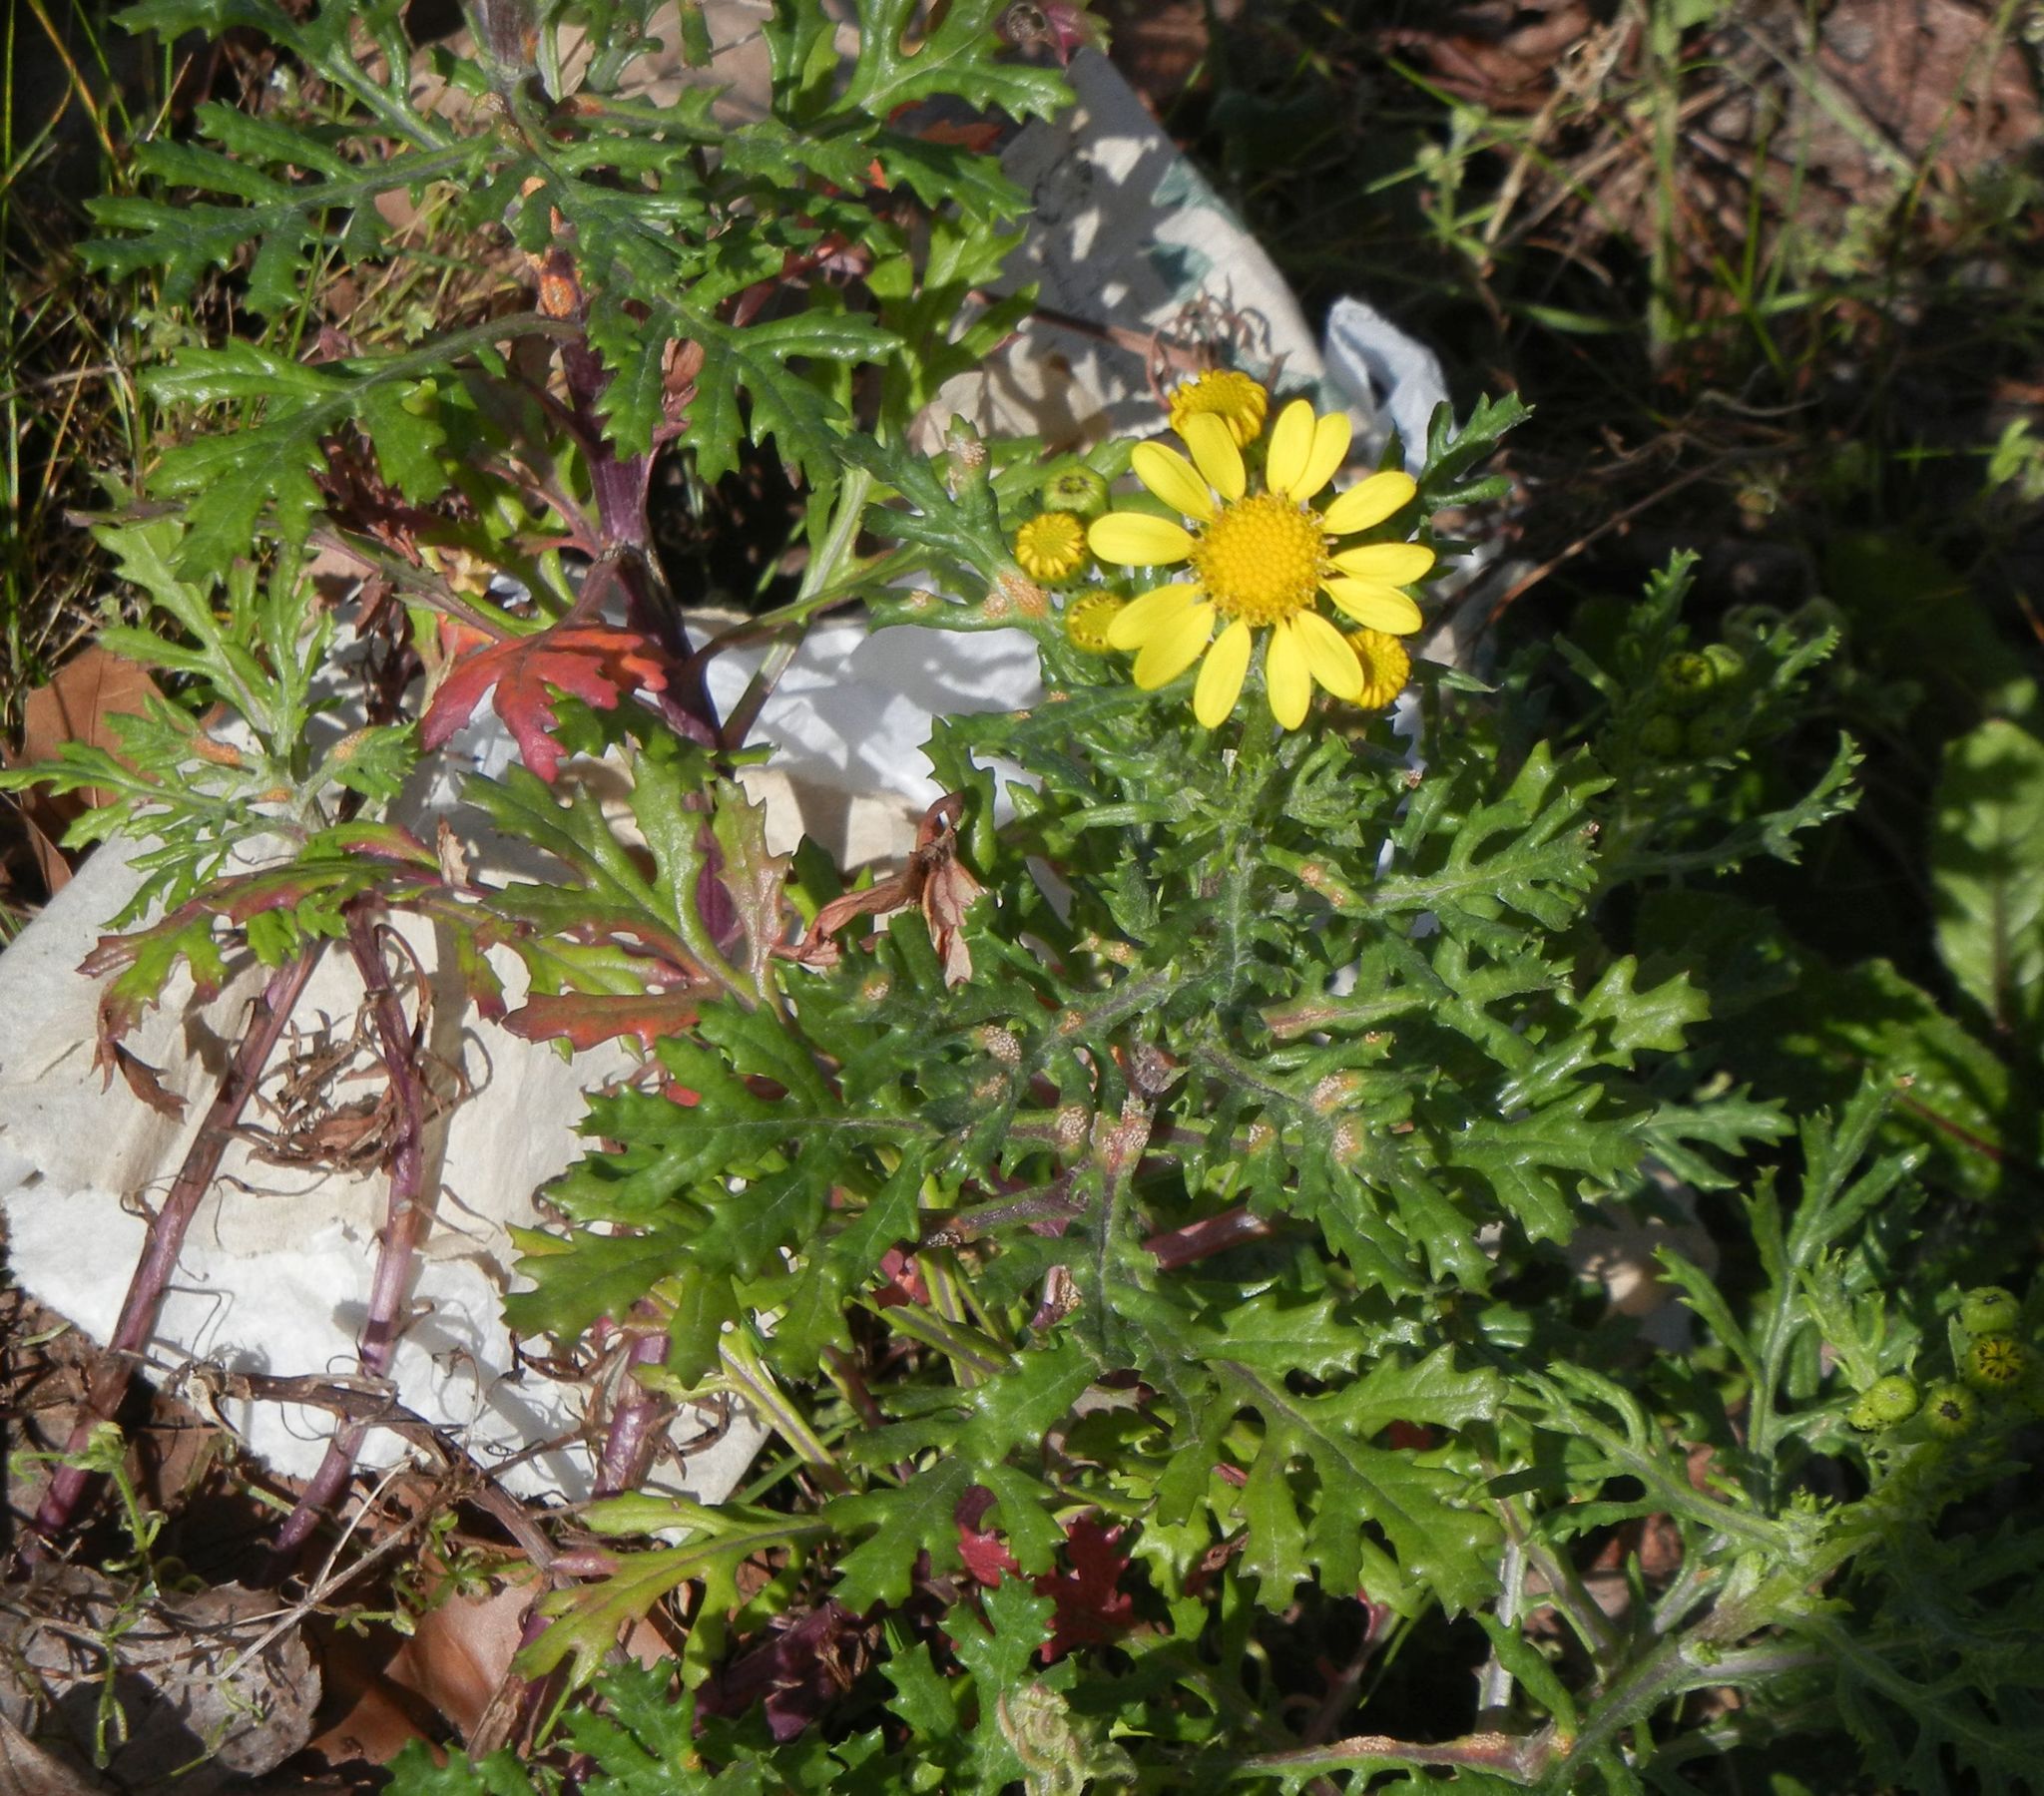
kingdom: Plantae
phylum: Tracheophyta
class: Magnoliopsida
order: Asterales
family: Asteraceae
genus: Senecio
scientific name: Senecio squalidus
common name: Oxford ragwort
